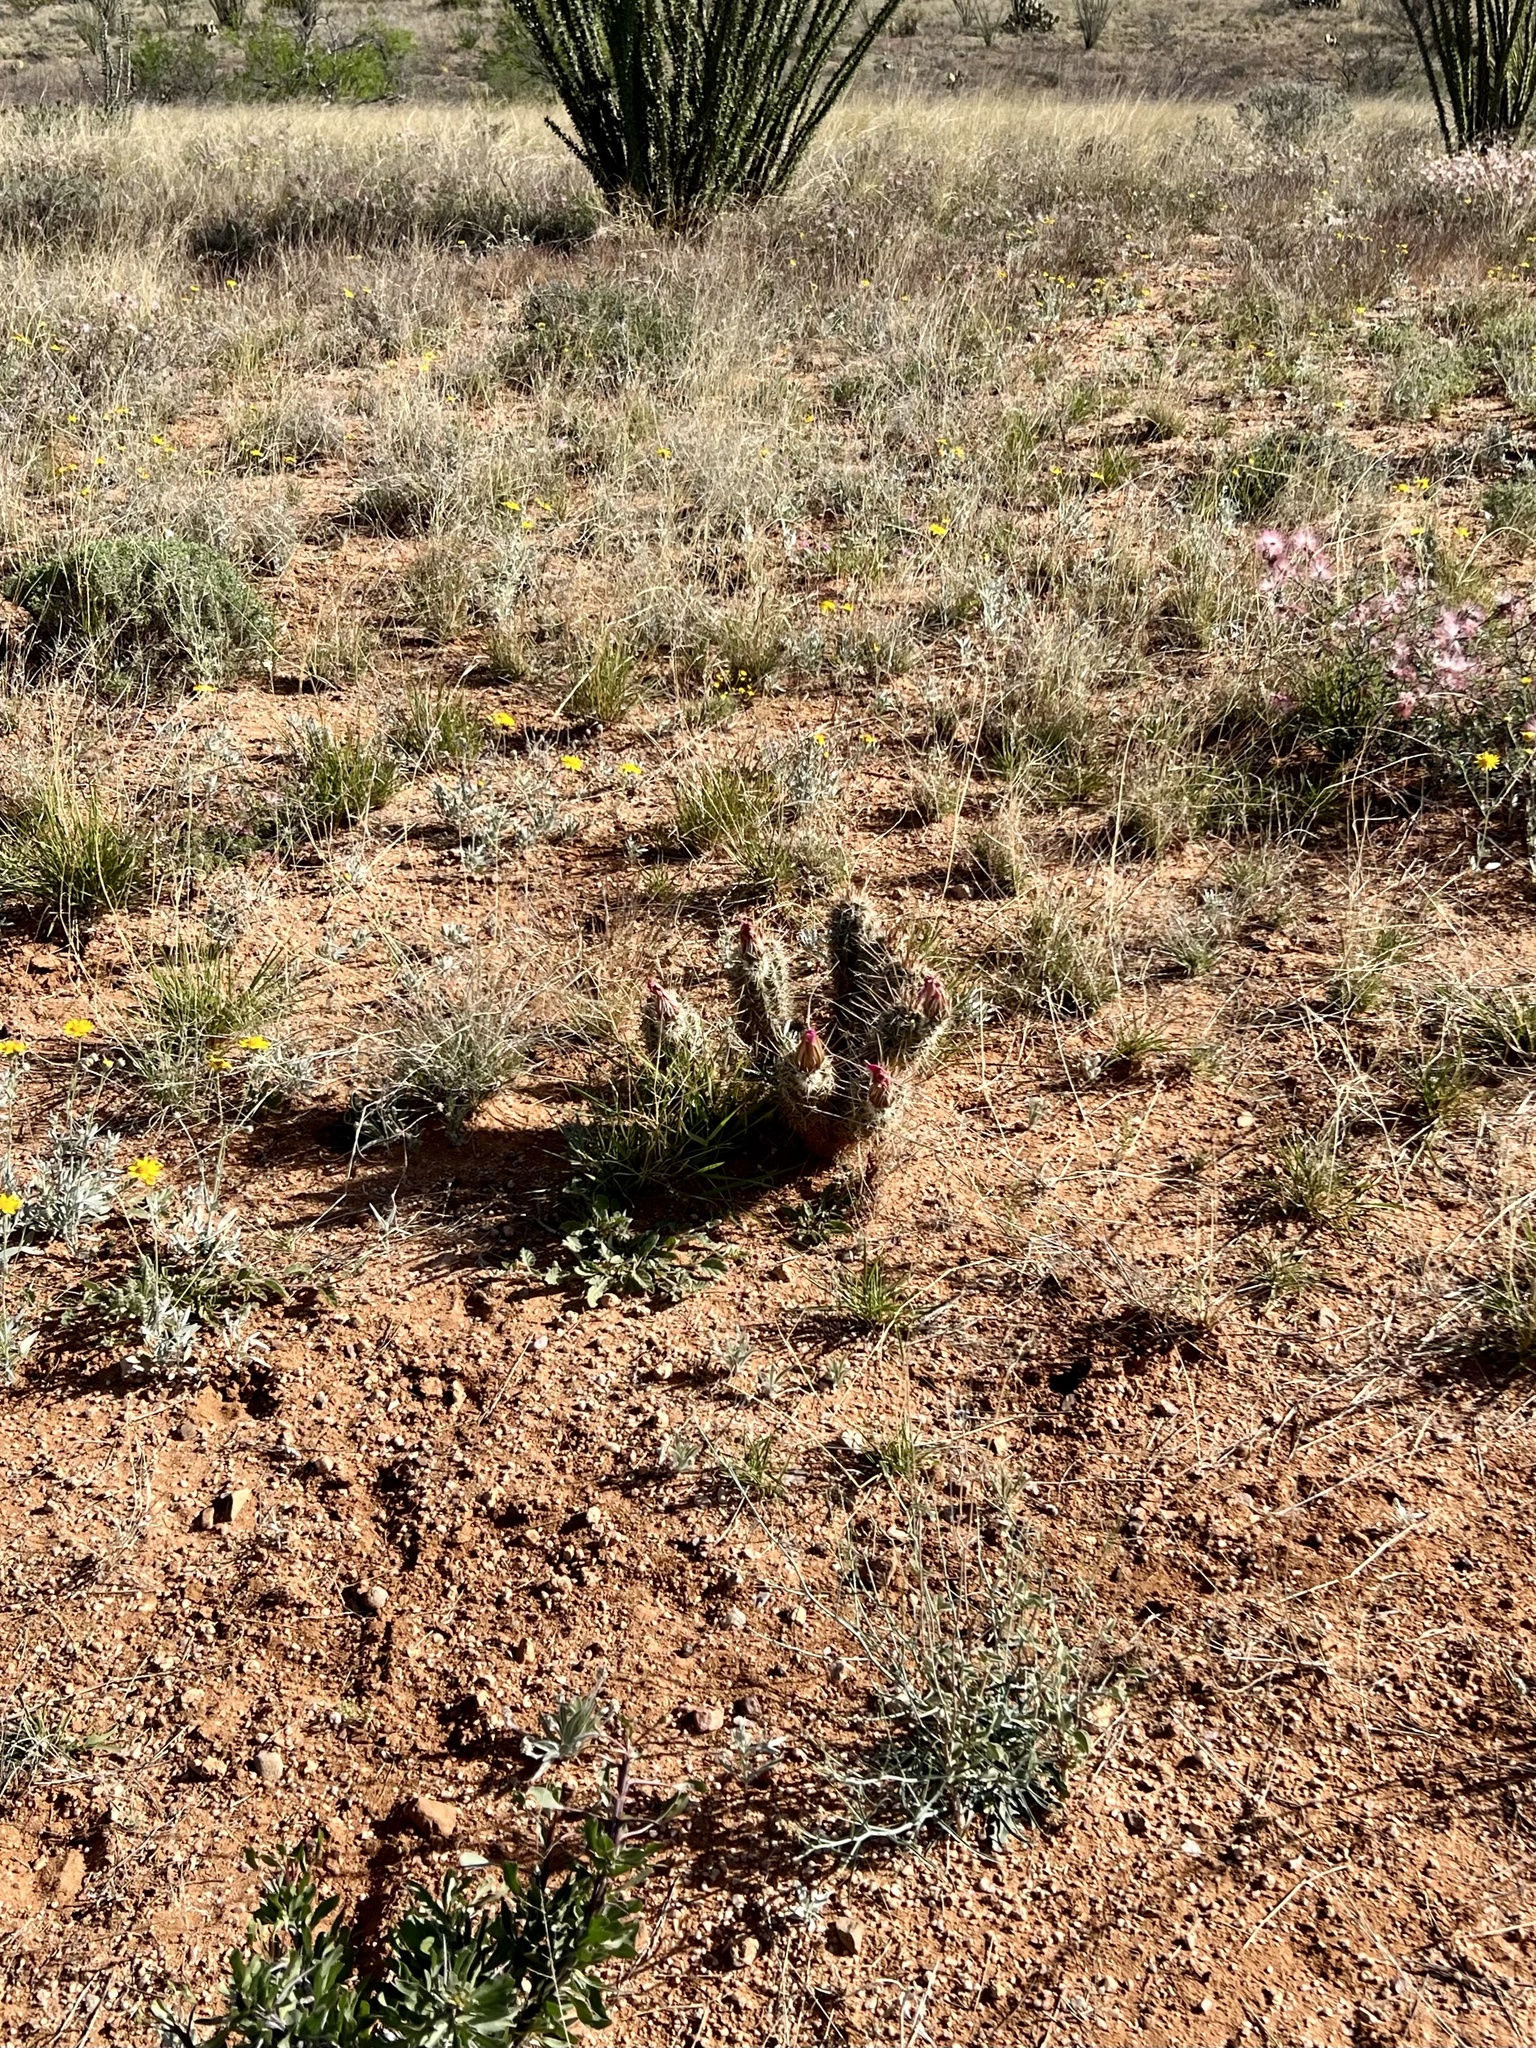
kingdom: Plantae
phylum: Tracheophyta
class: Magnoliopsida
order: Caryophyllales
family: Cactaceae
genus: Echinocereus
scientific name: Echinocereus fasciculatus
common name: Bundle hedgehog
